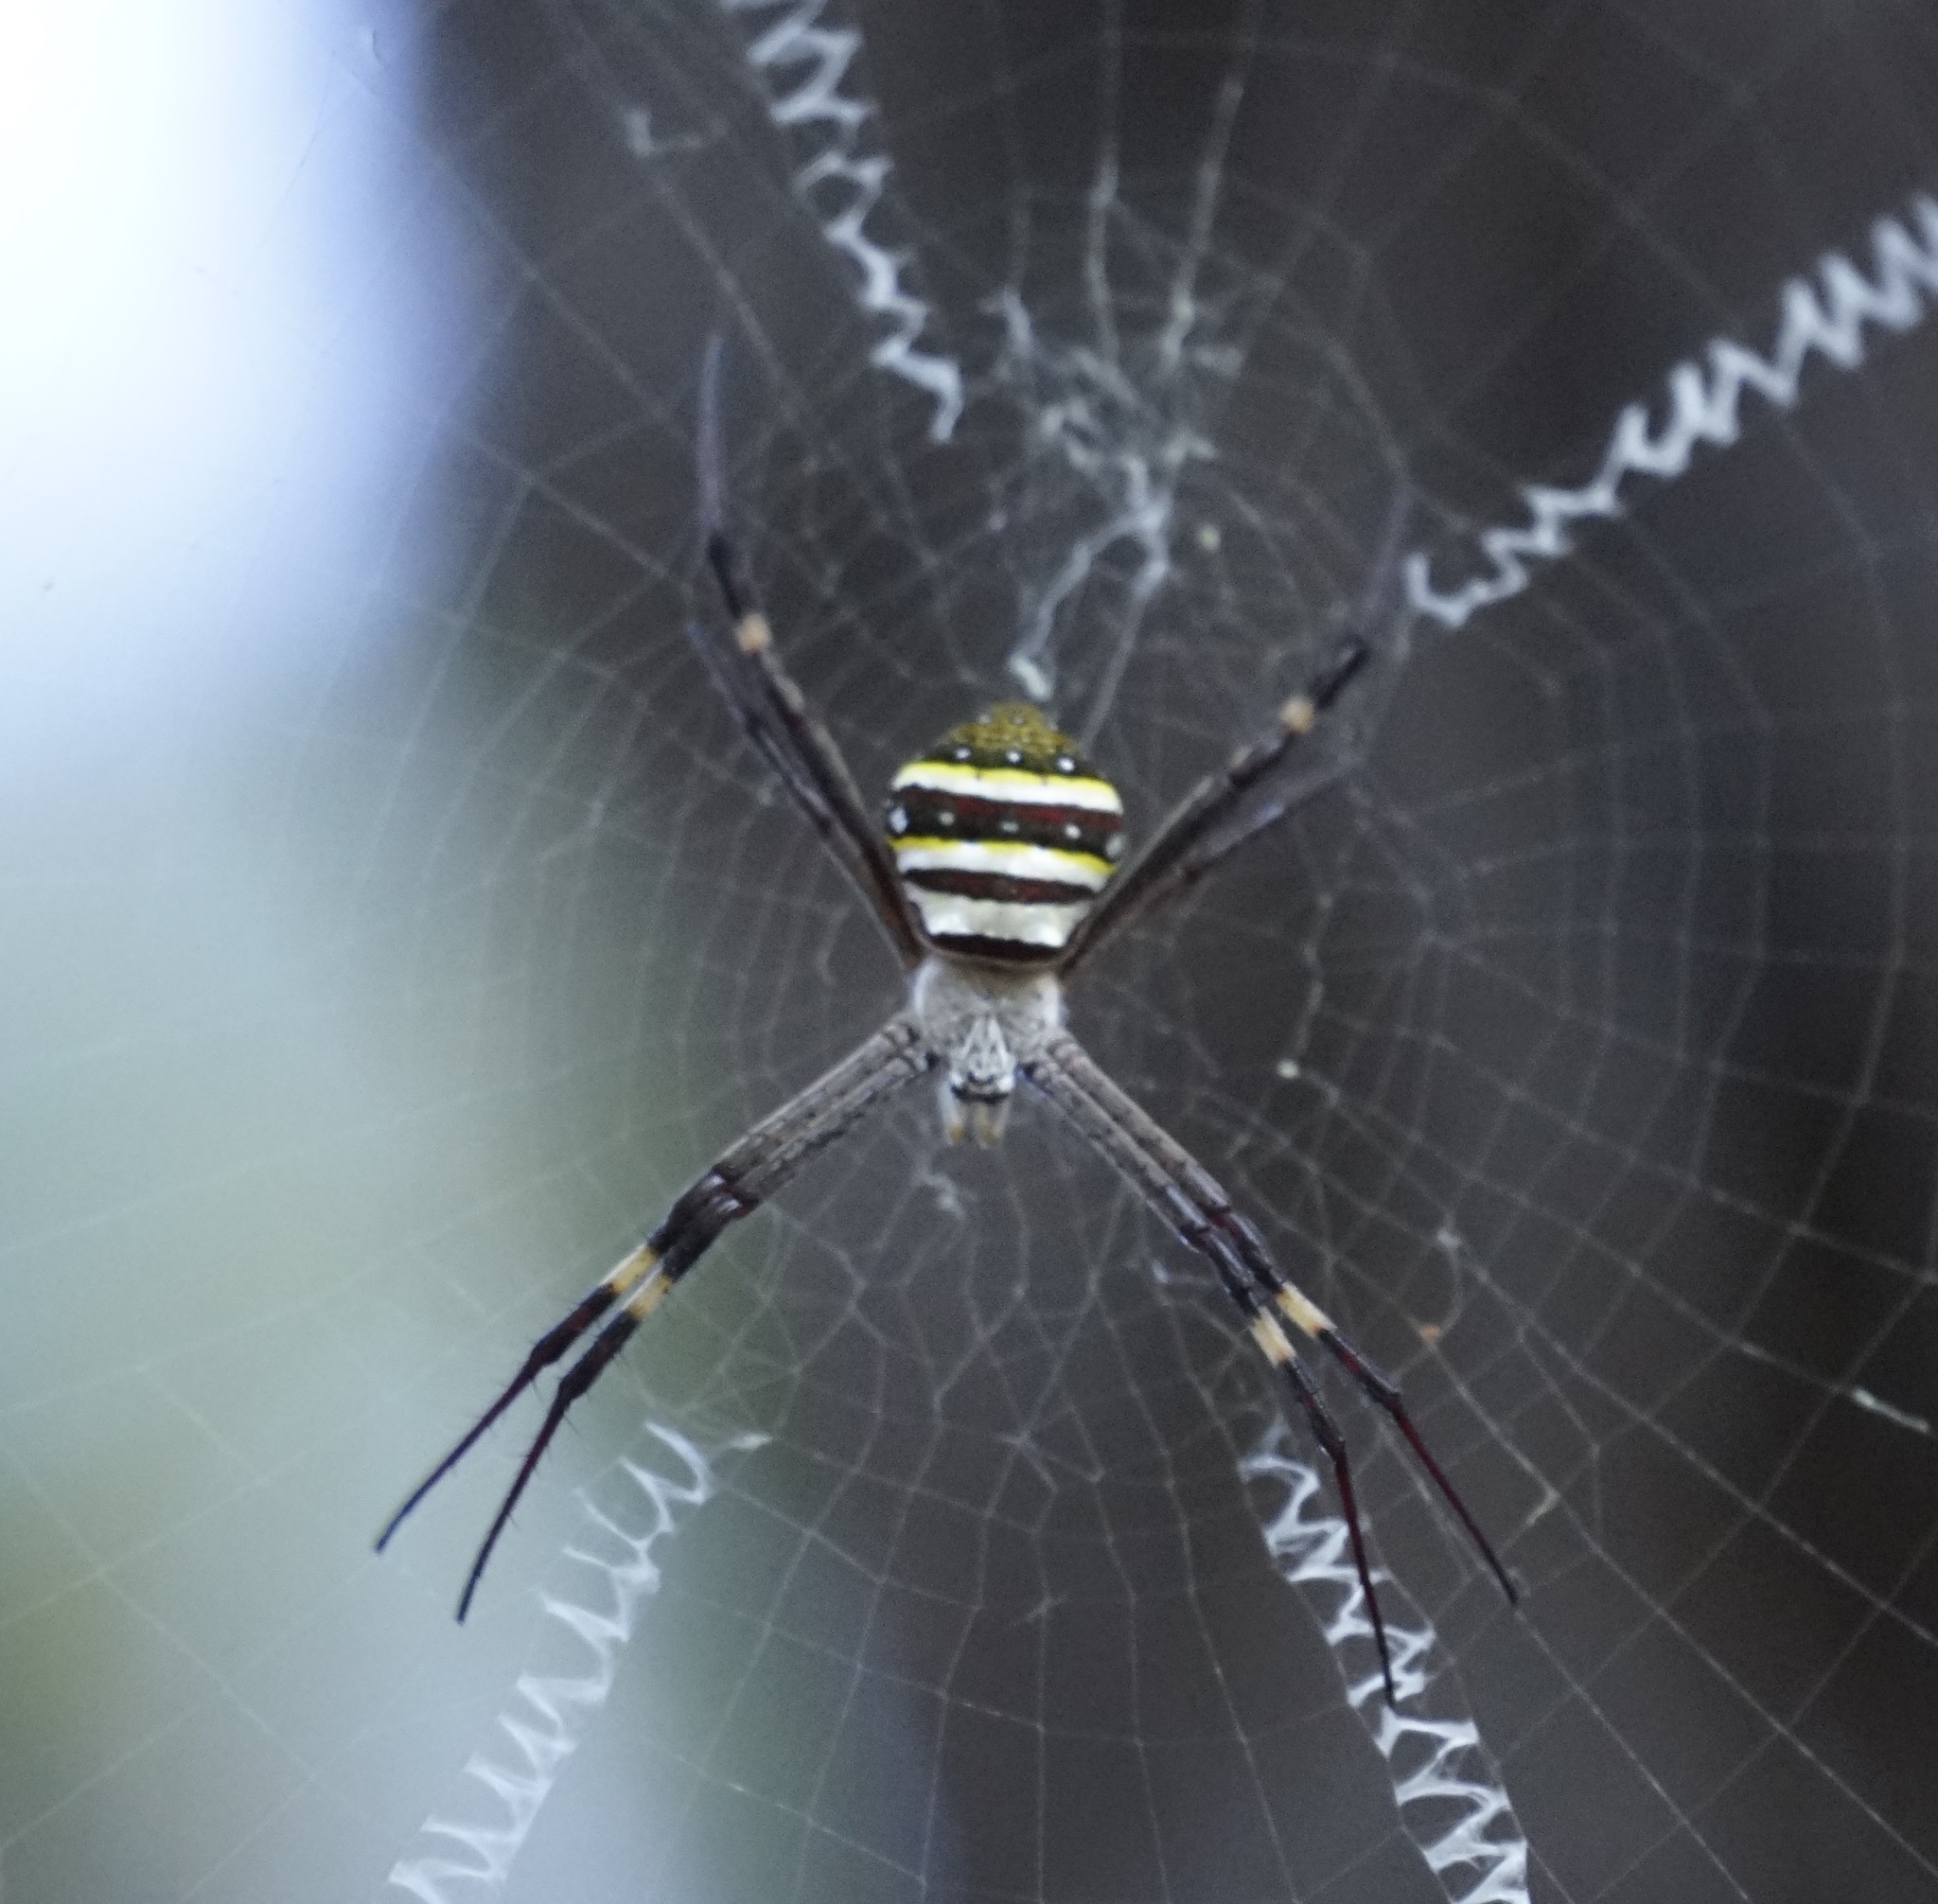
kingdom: Animalia
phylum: Arthropoda
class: Arachnida
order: Araneae
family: Araneidae
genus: Argiope
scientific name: Argiope keyserlingi
